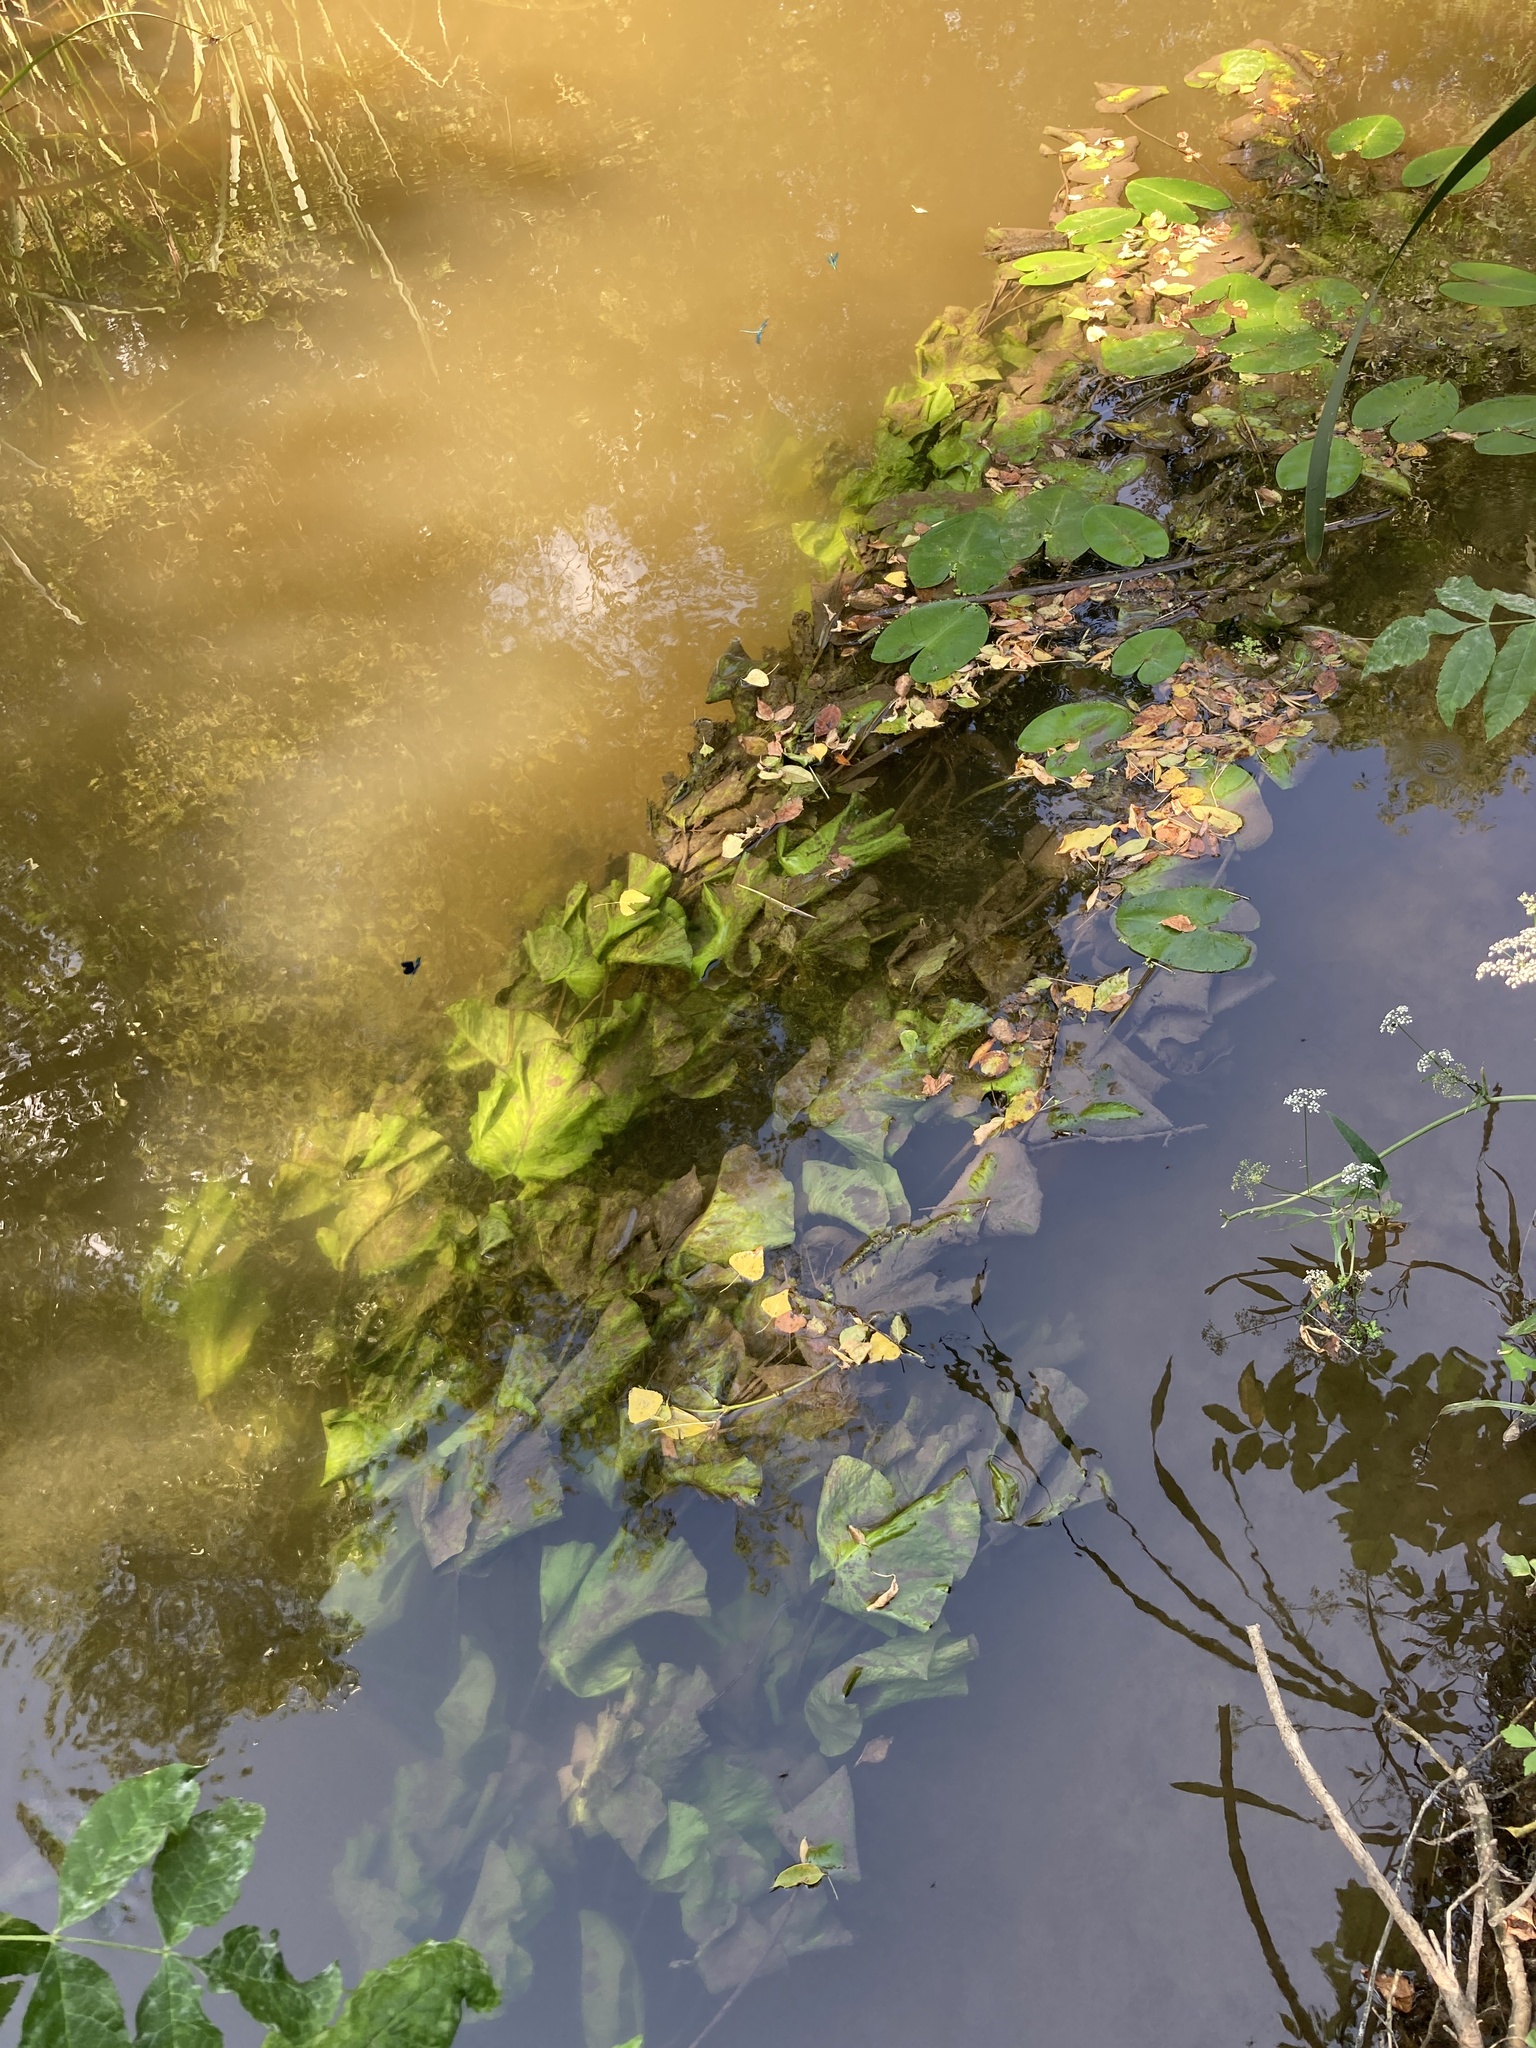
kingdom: Plantae
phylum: Tracheophyta
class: Magnoliopsida
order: Nymphaeales
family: Nymphaeaceae
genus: Nuphar
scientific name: Nuphar lutea
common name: Yellow water-lily
